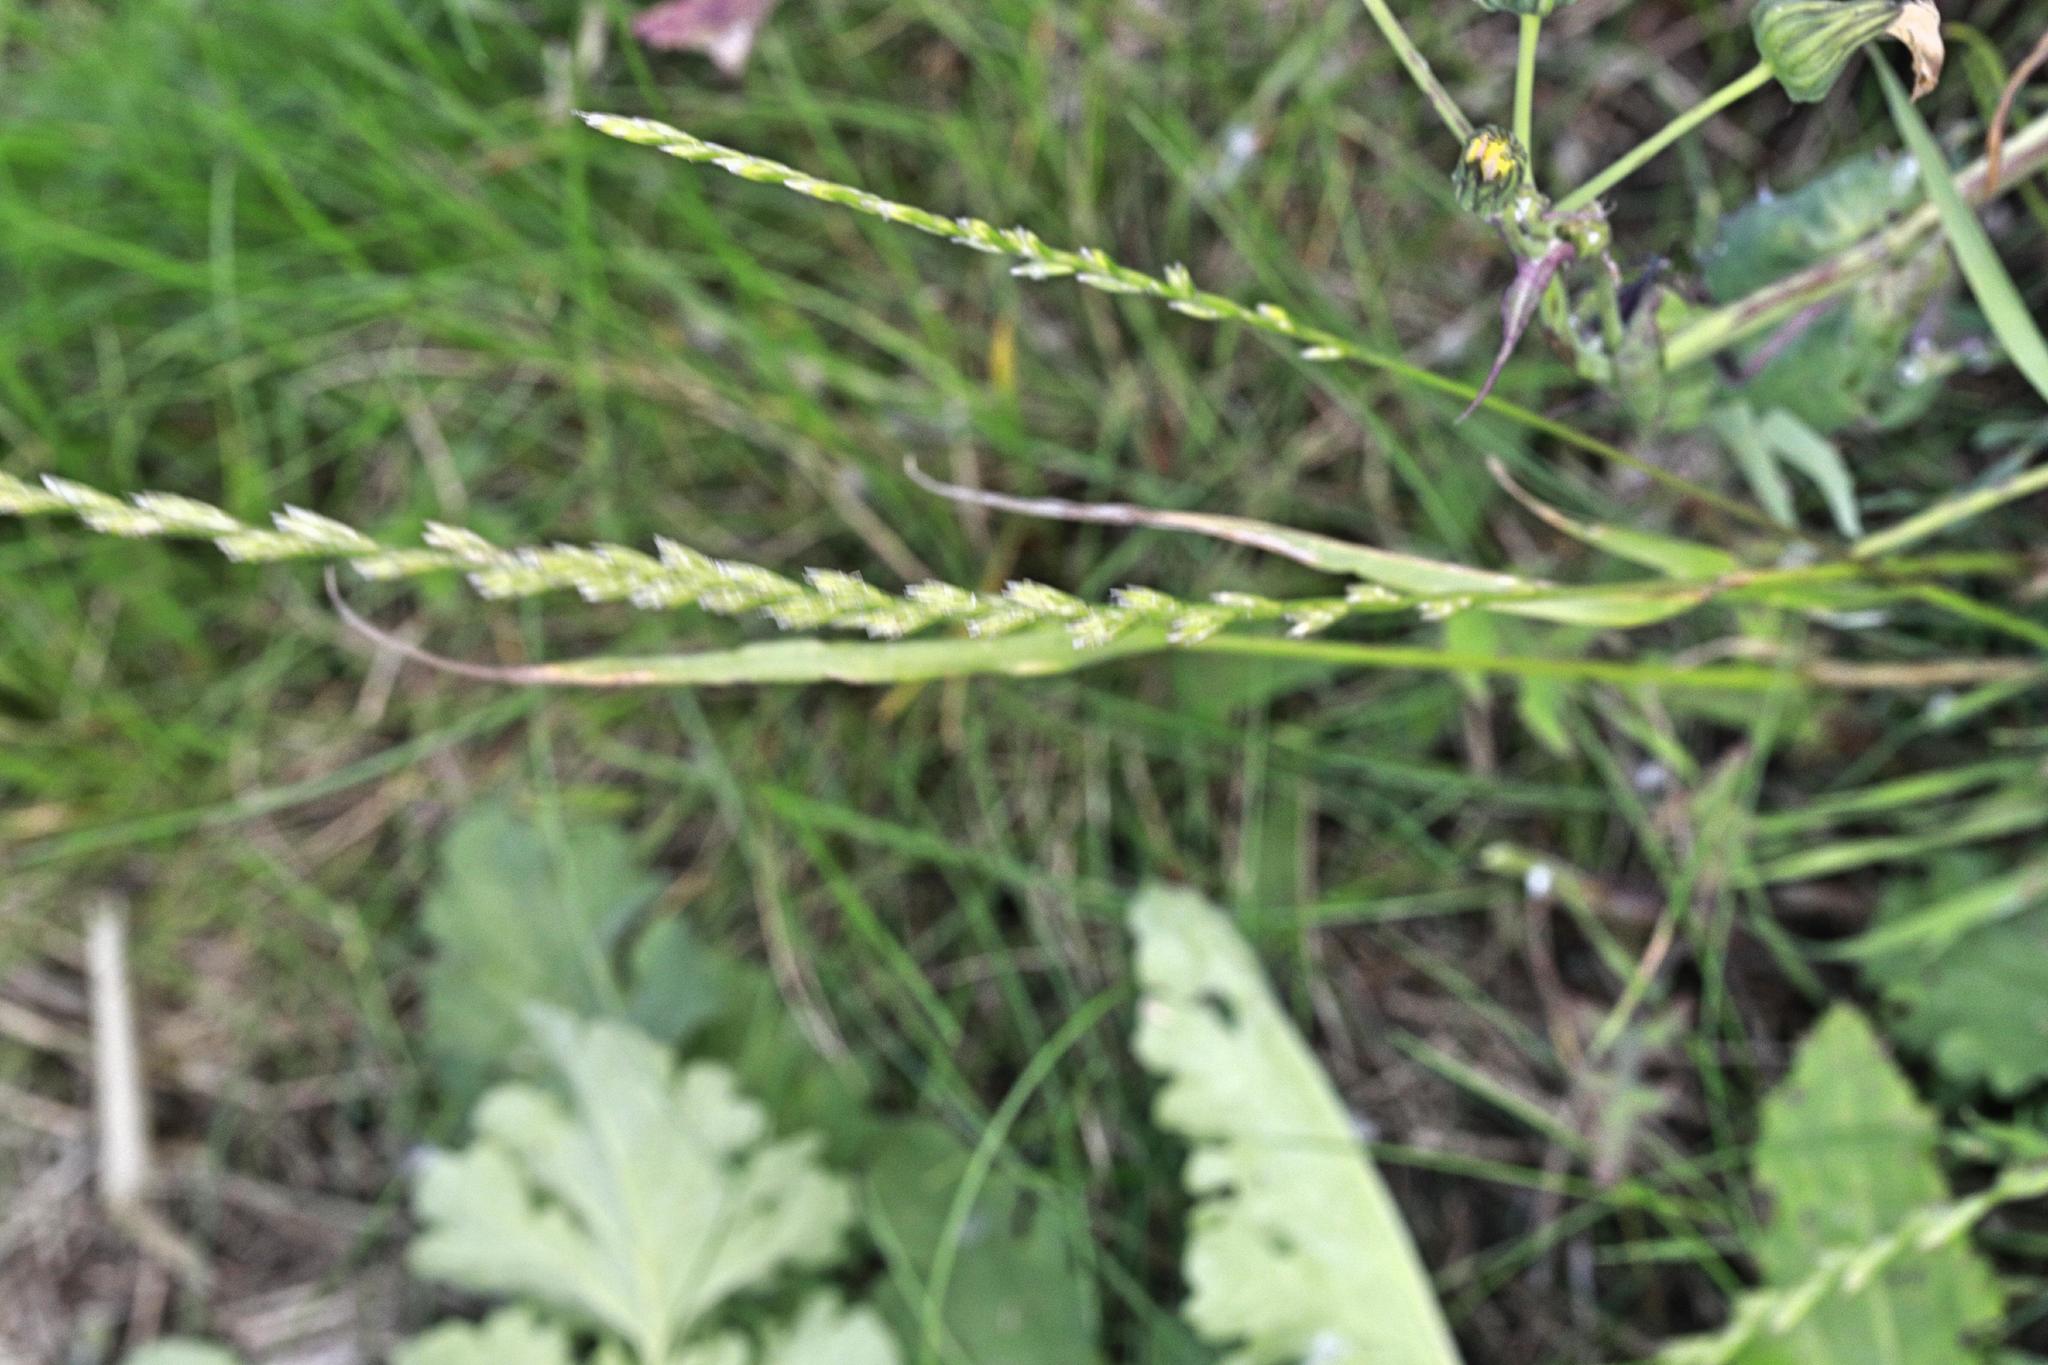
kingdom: Plantae
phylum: Tracheophyta
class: Liliopsida
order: Poales
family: Poaceae
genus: Lolium
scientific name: Lolium perenne
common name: Perennial ryegrass
